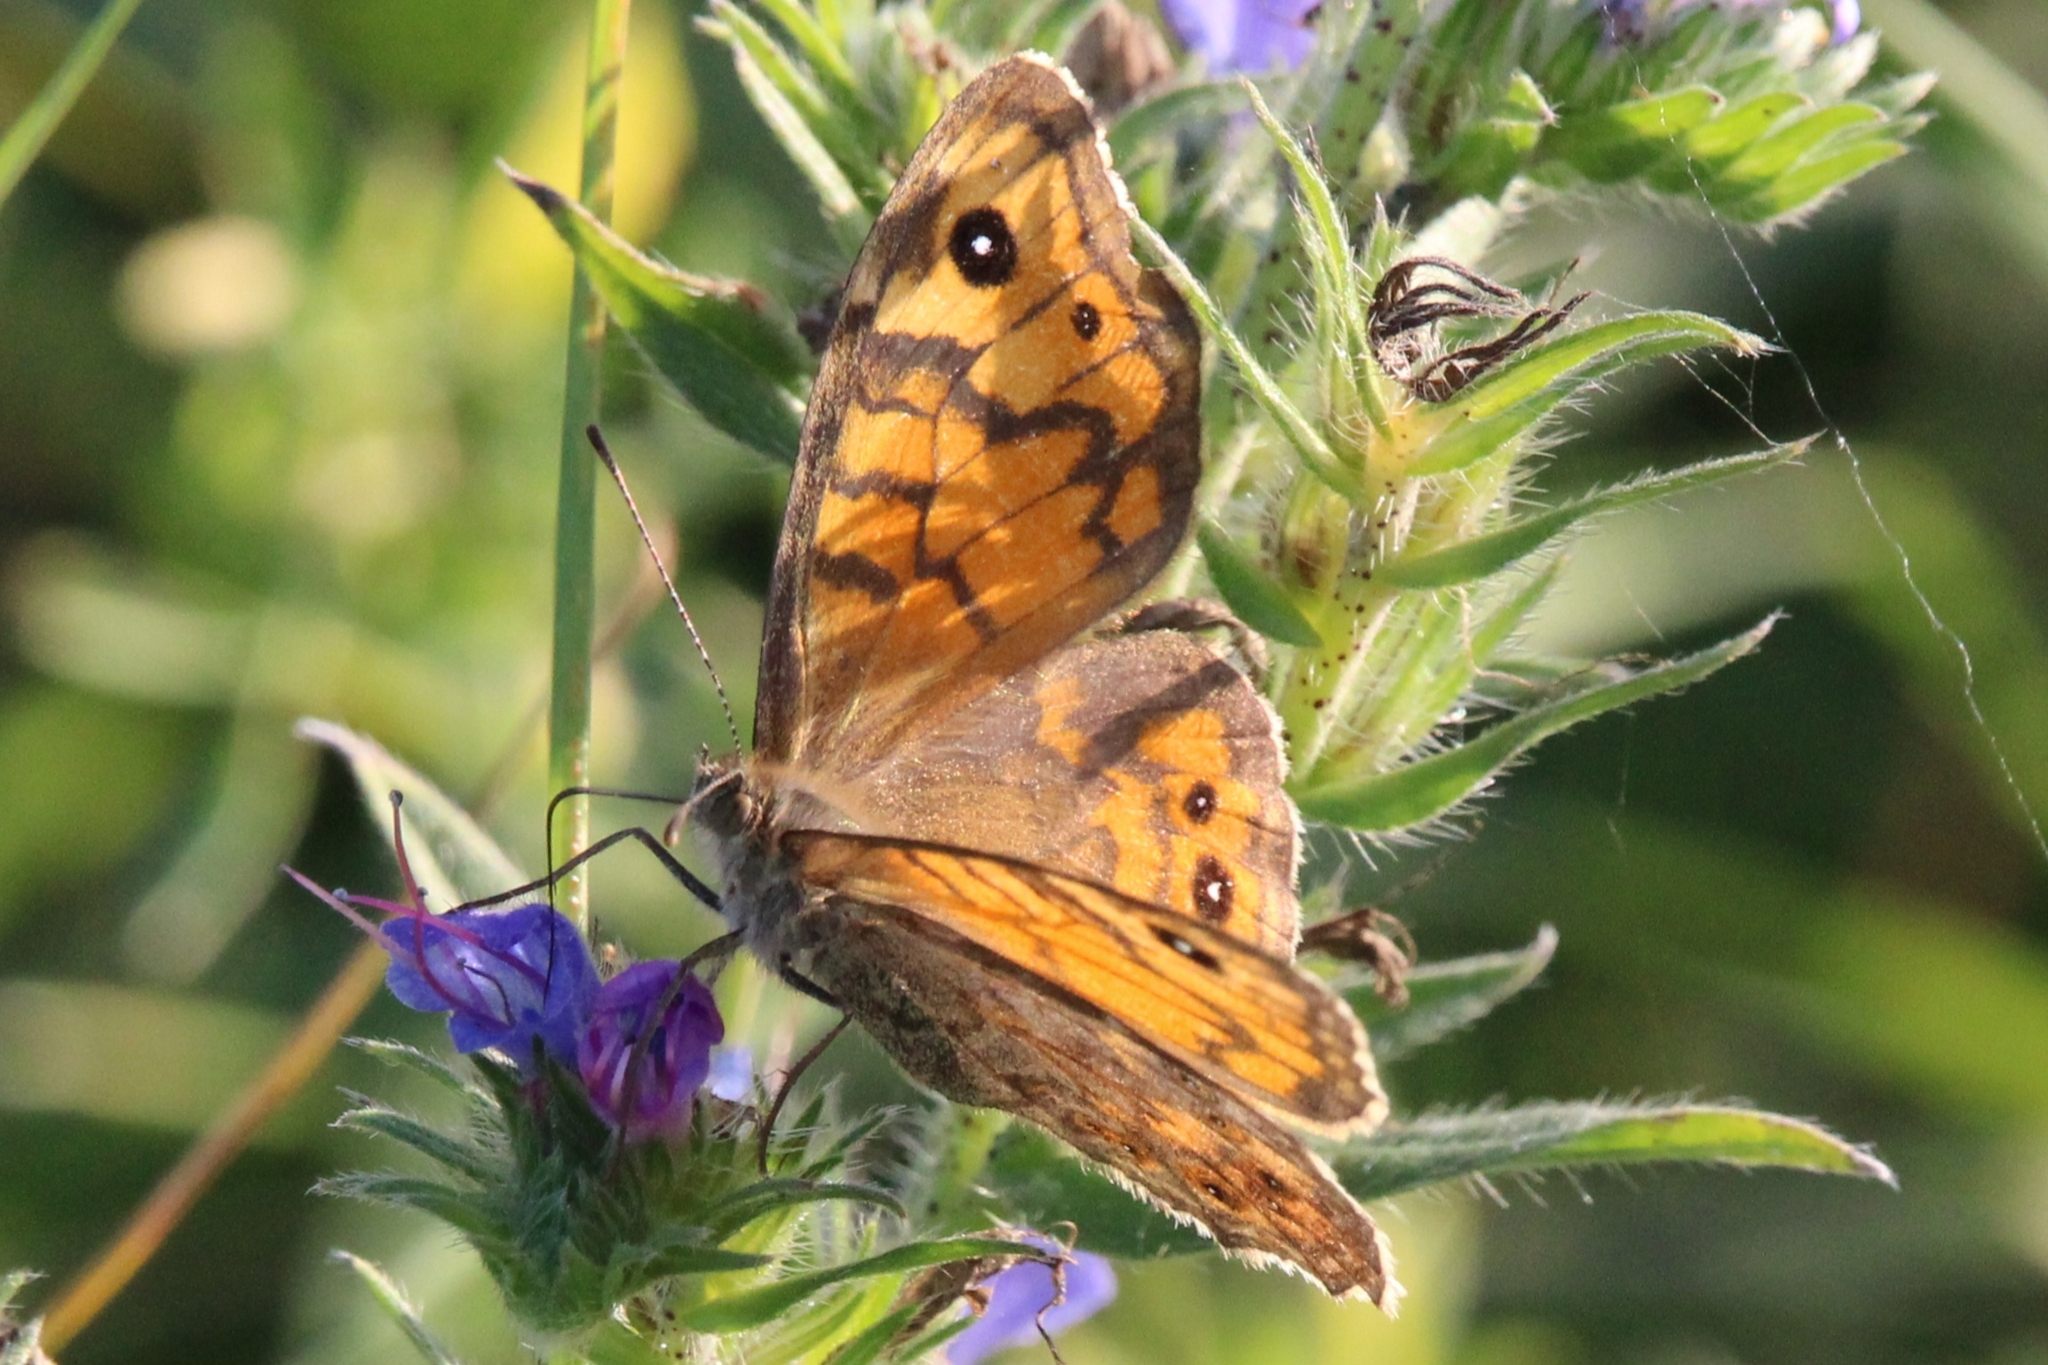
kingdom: Animalia
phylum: Arthropoda
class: Insecta
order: Lepidoptera
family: Nymphalidae
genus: Pararge
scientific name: Pararge Lasiommata megera
